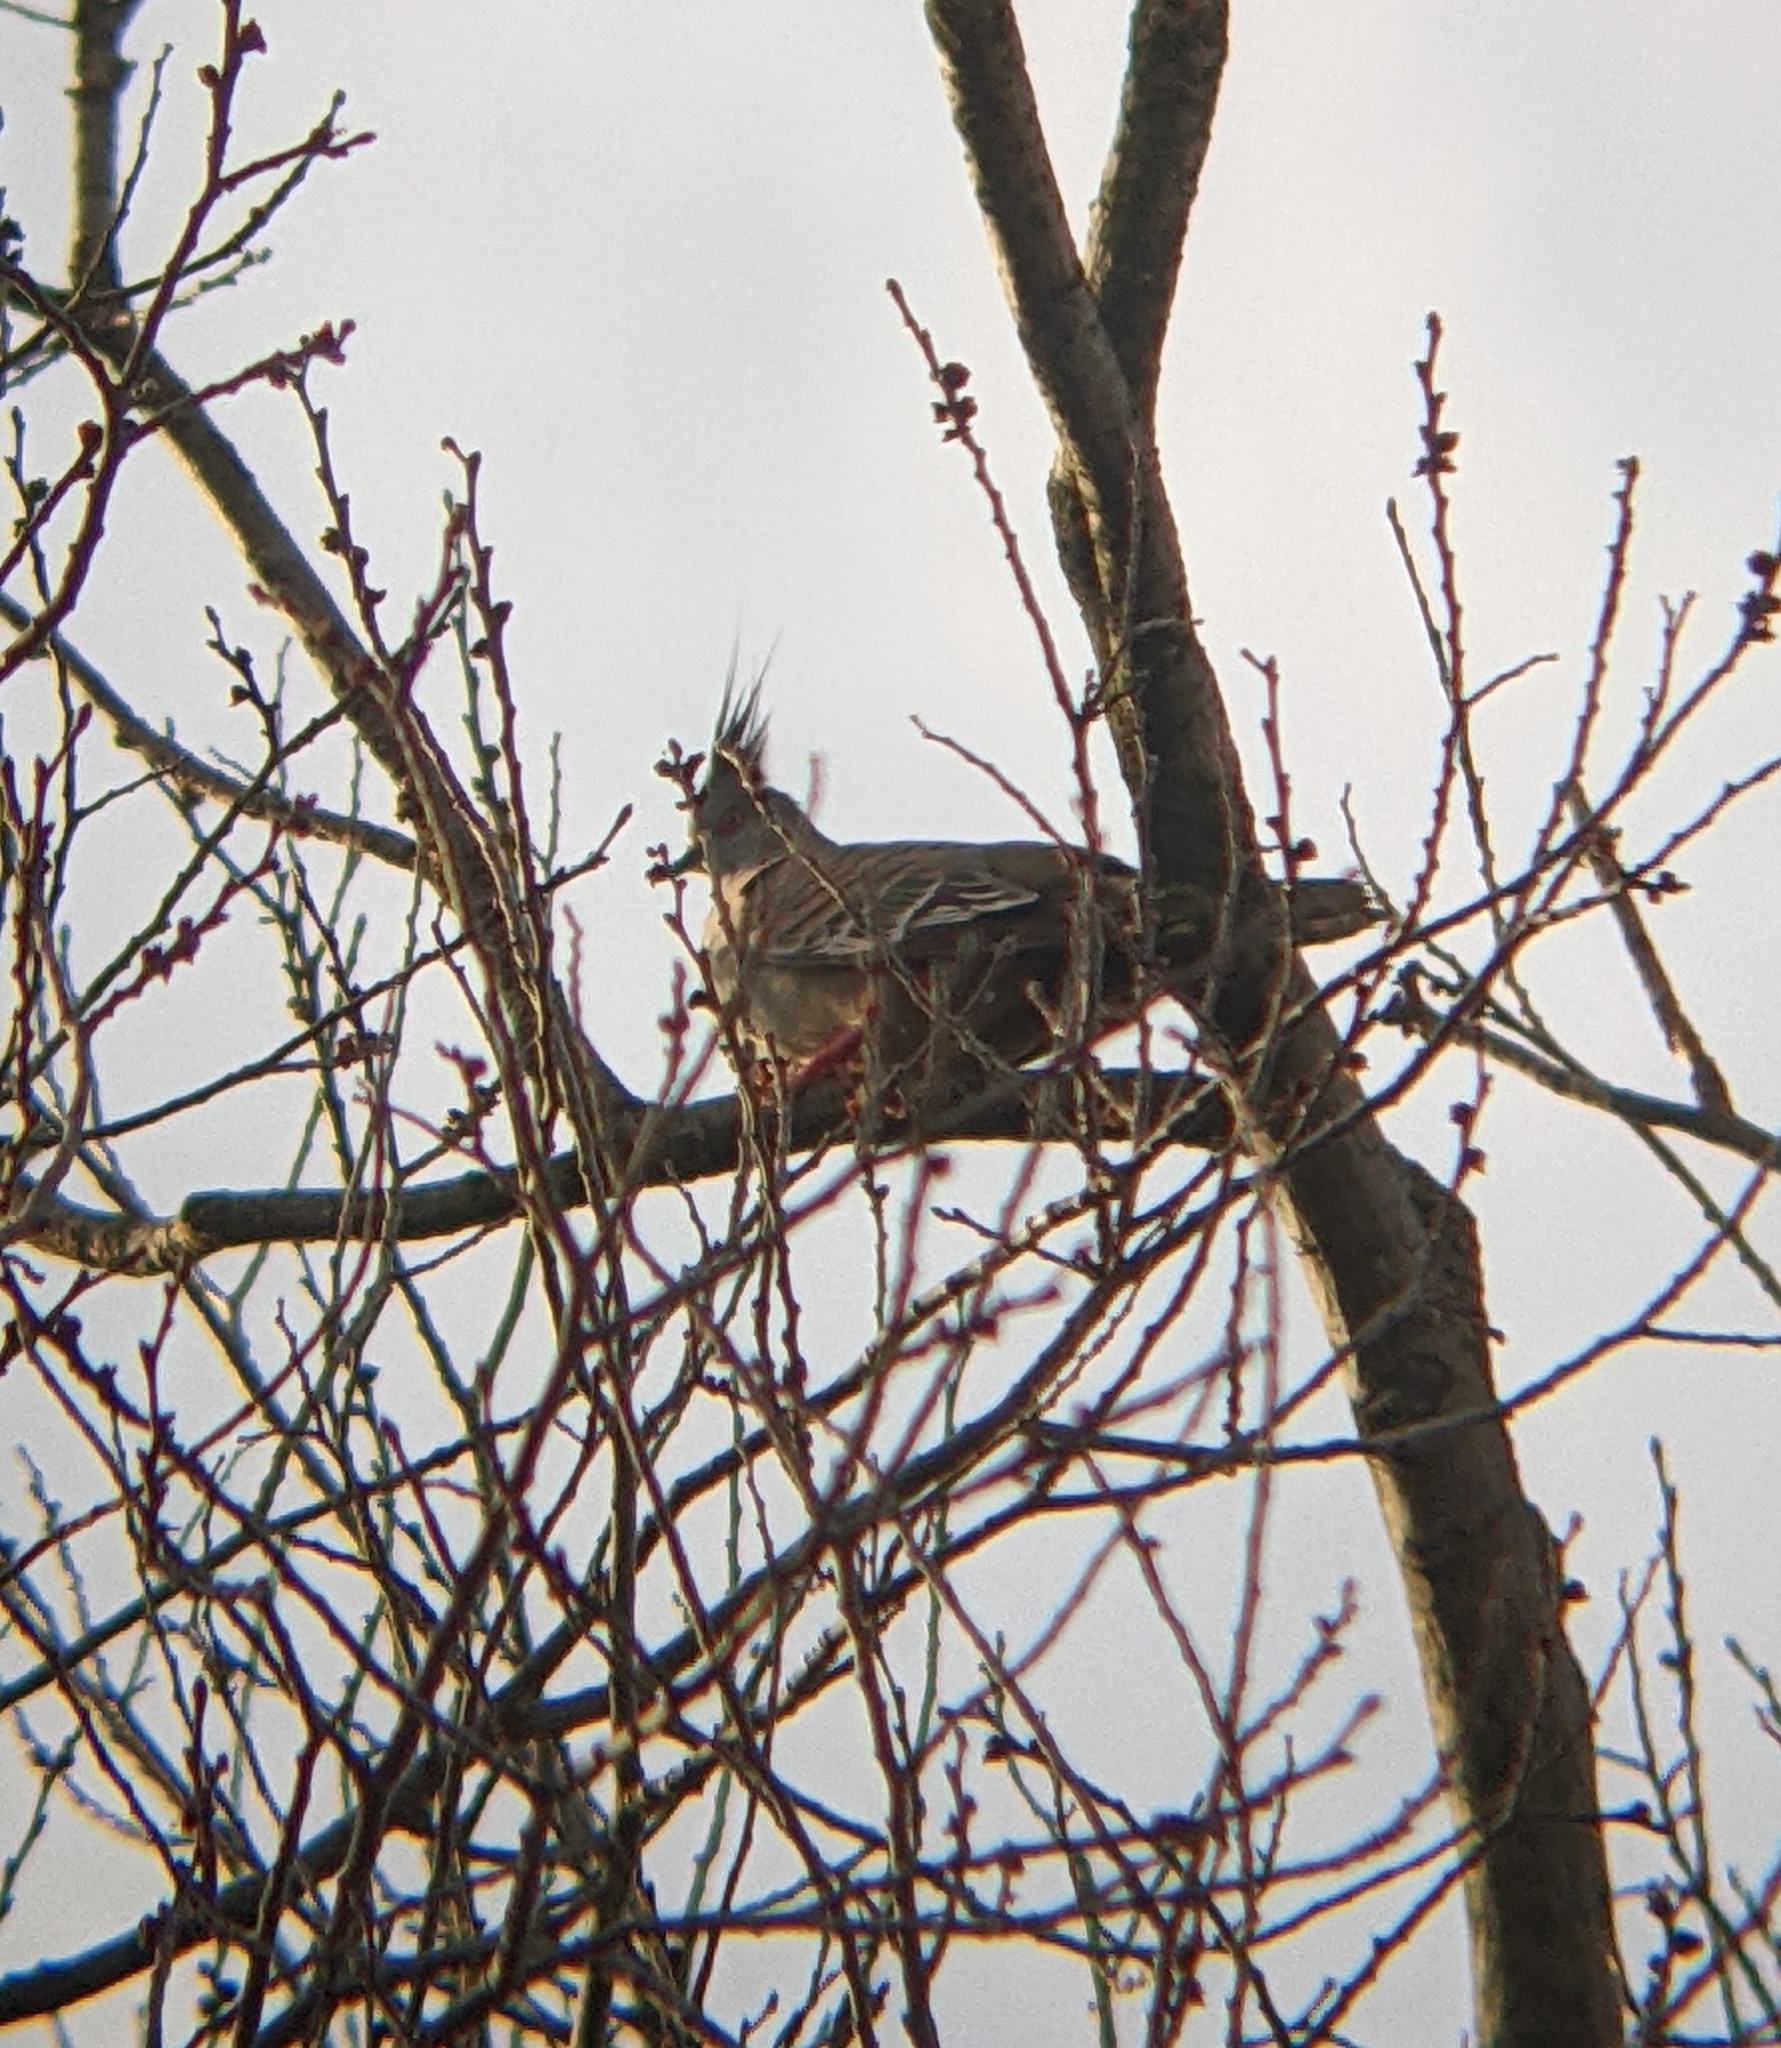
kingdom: Animalia
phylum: Chordata
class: Aves
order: Columbiformes
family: Columbidae
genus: Ocyphaps
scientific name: Ocyphaps lophotes
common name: Crested pigeon
